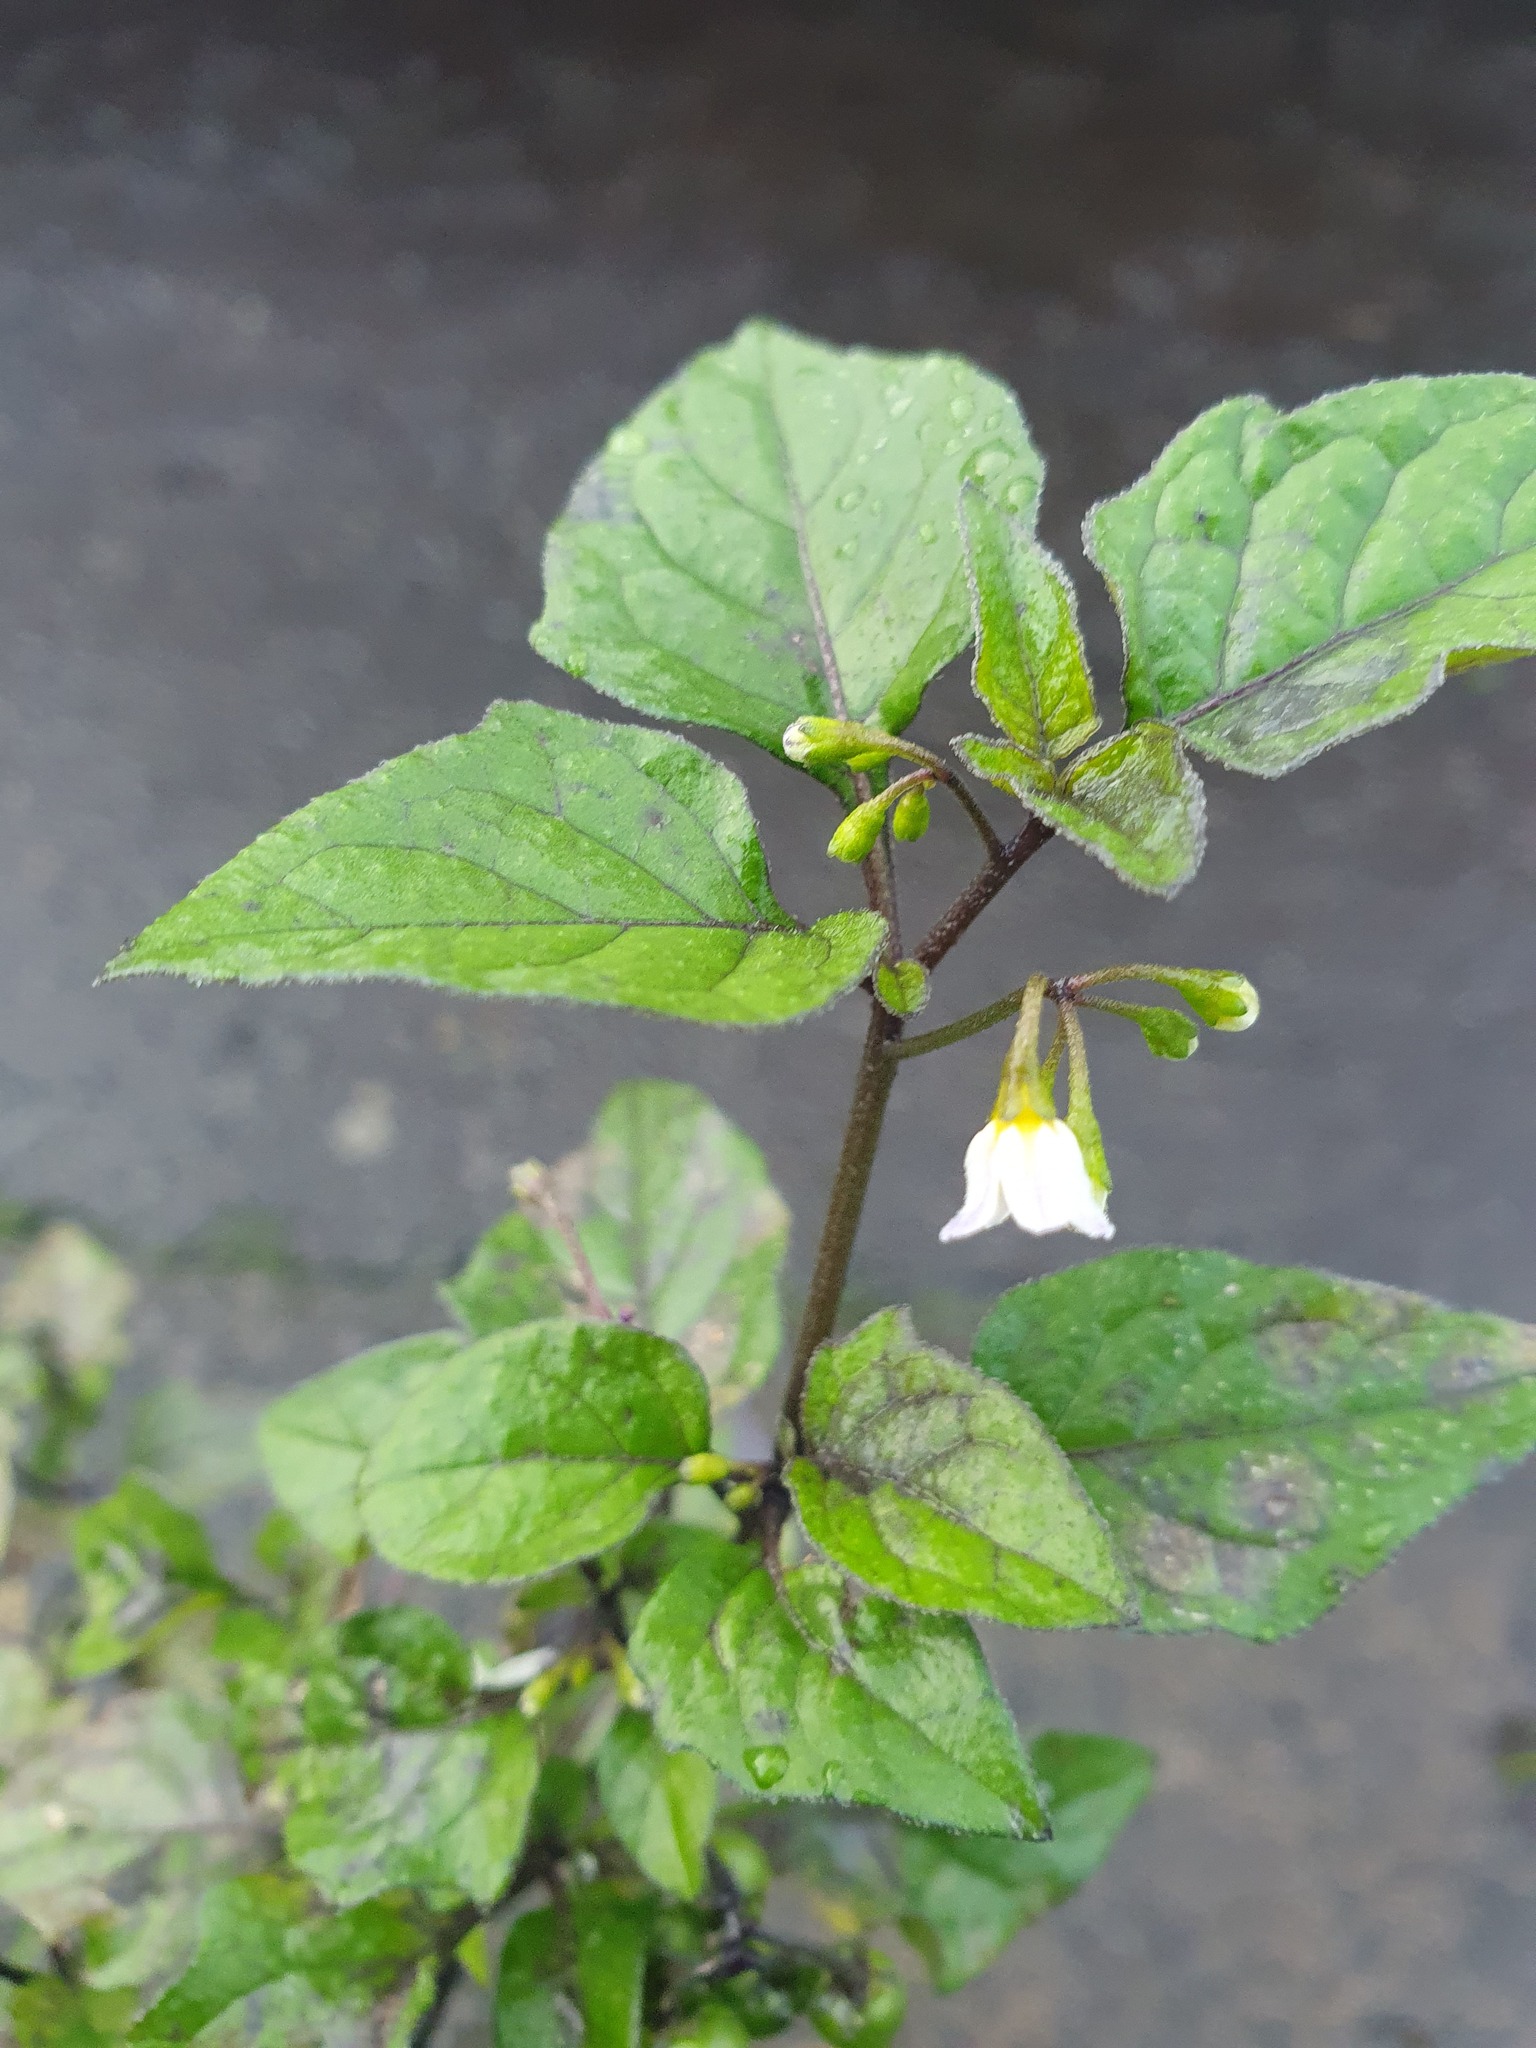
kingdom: Plantae
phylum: Tracheophyta
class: Magnoliopsida
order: Solanales
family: Solanaceae
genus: Solanum
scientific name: Solanum nigrum
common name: Black nightshade
